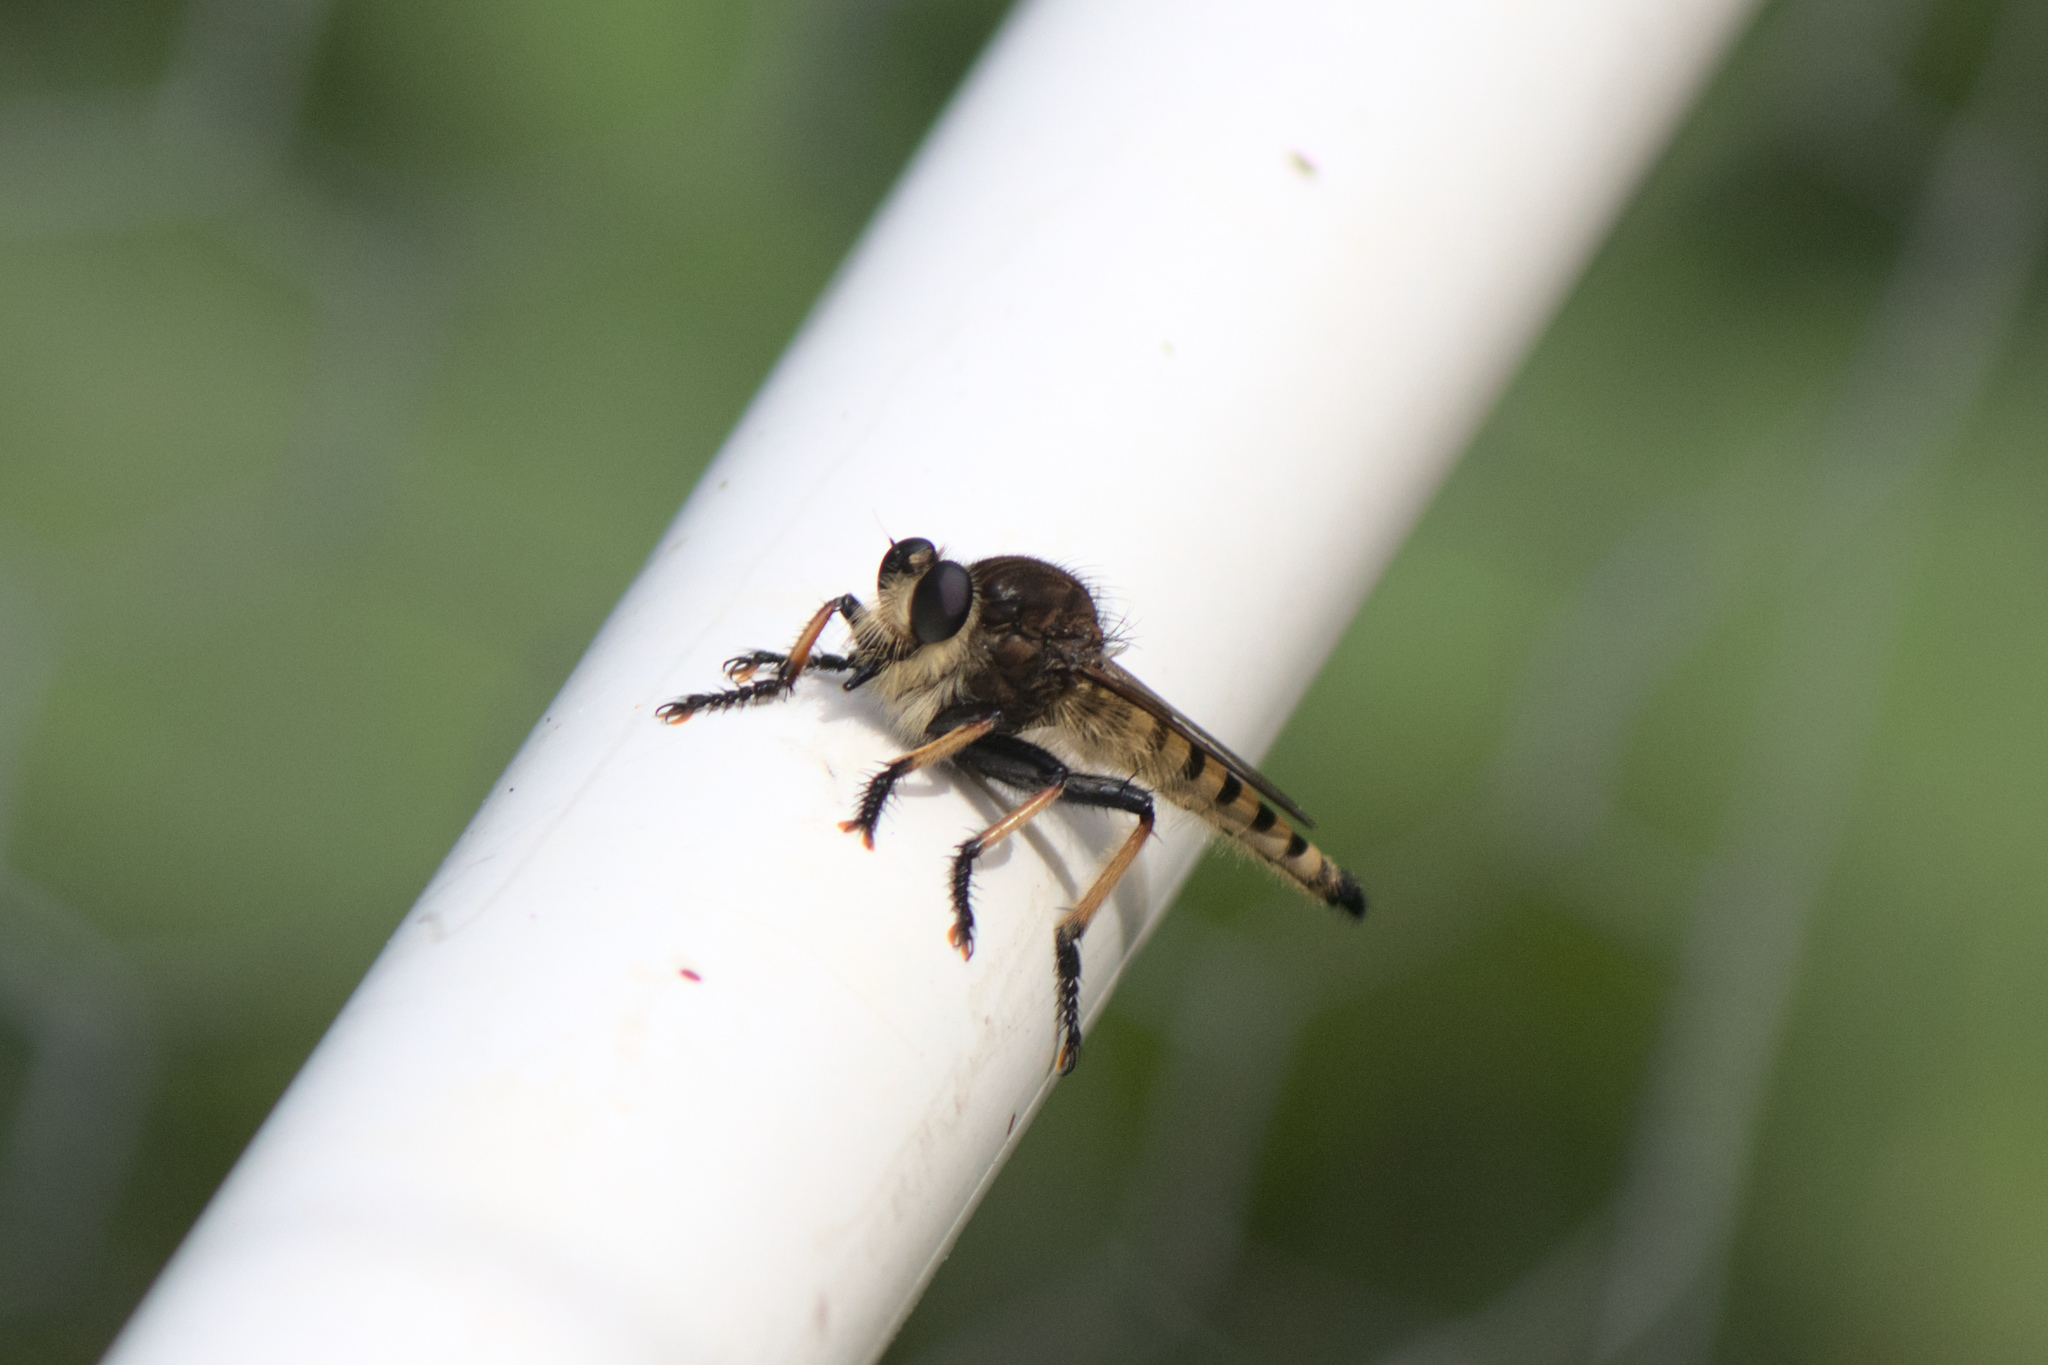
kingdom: Animalia
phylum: Arthropoda
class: Insecta
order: Diptera
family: Asilidae
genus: Promachus
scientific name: Promachus rufipes
